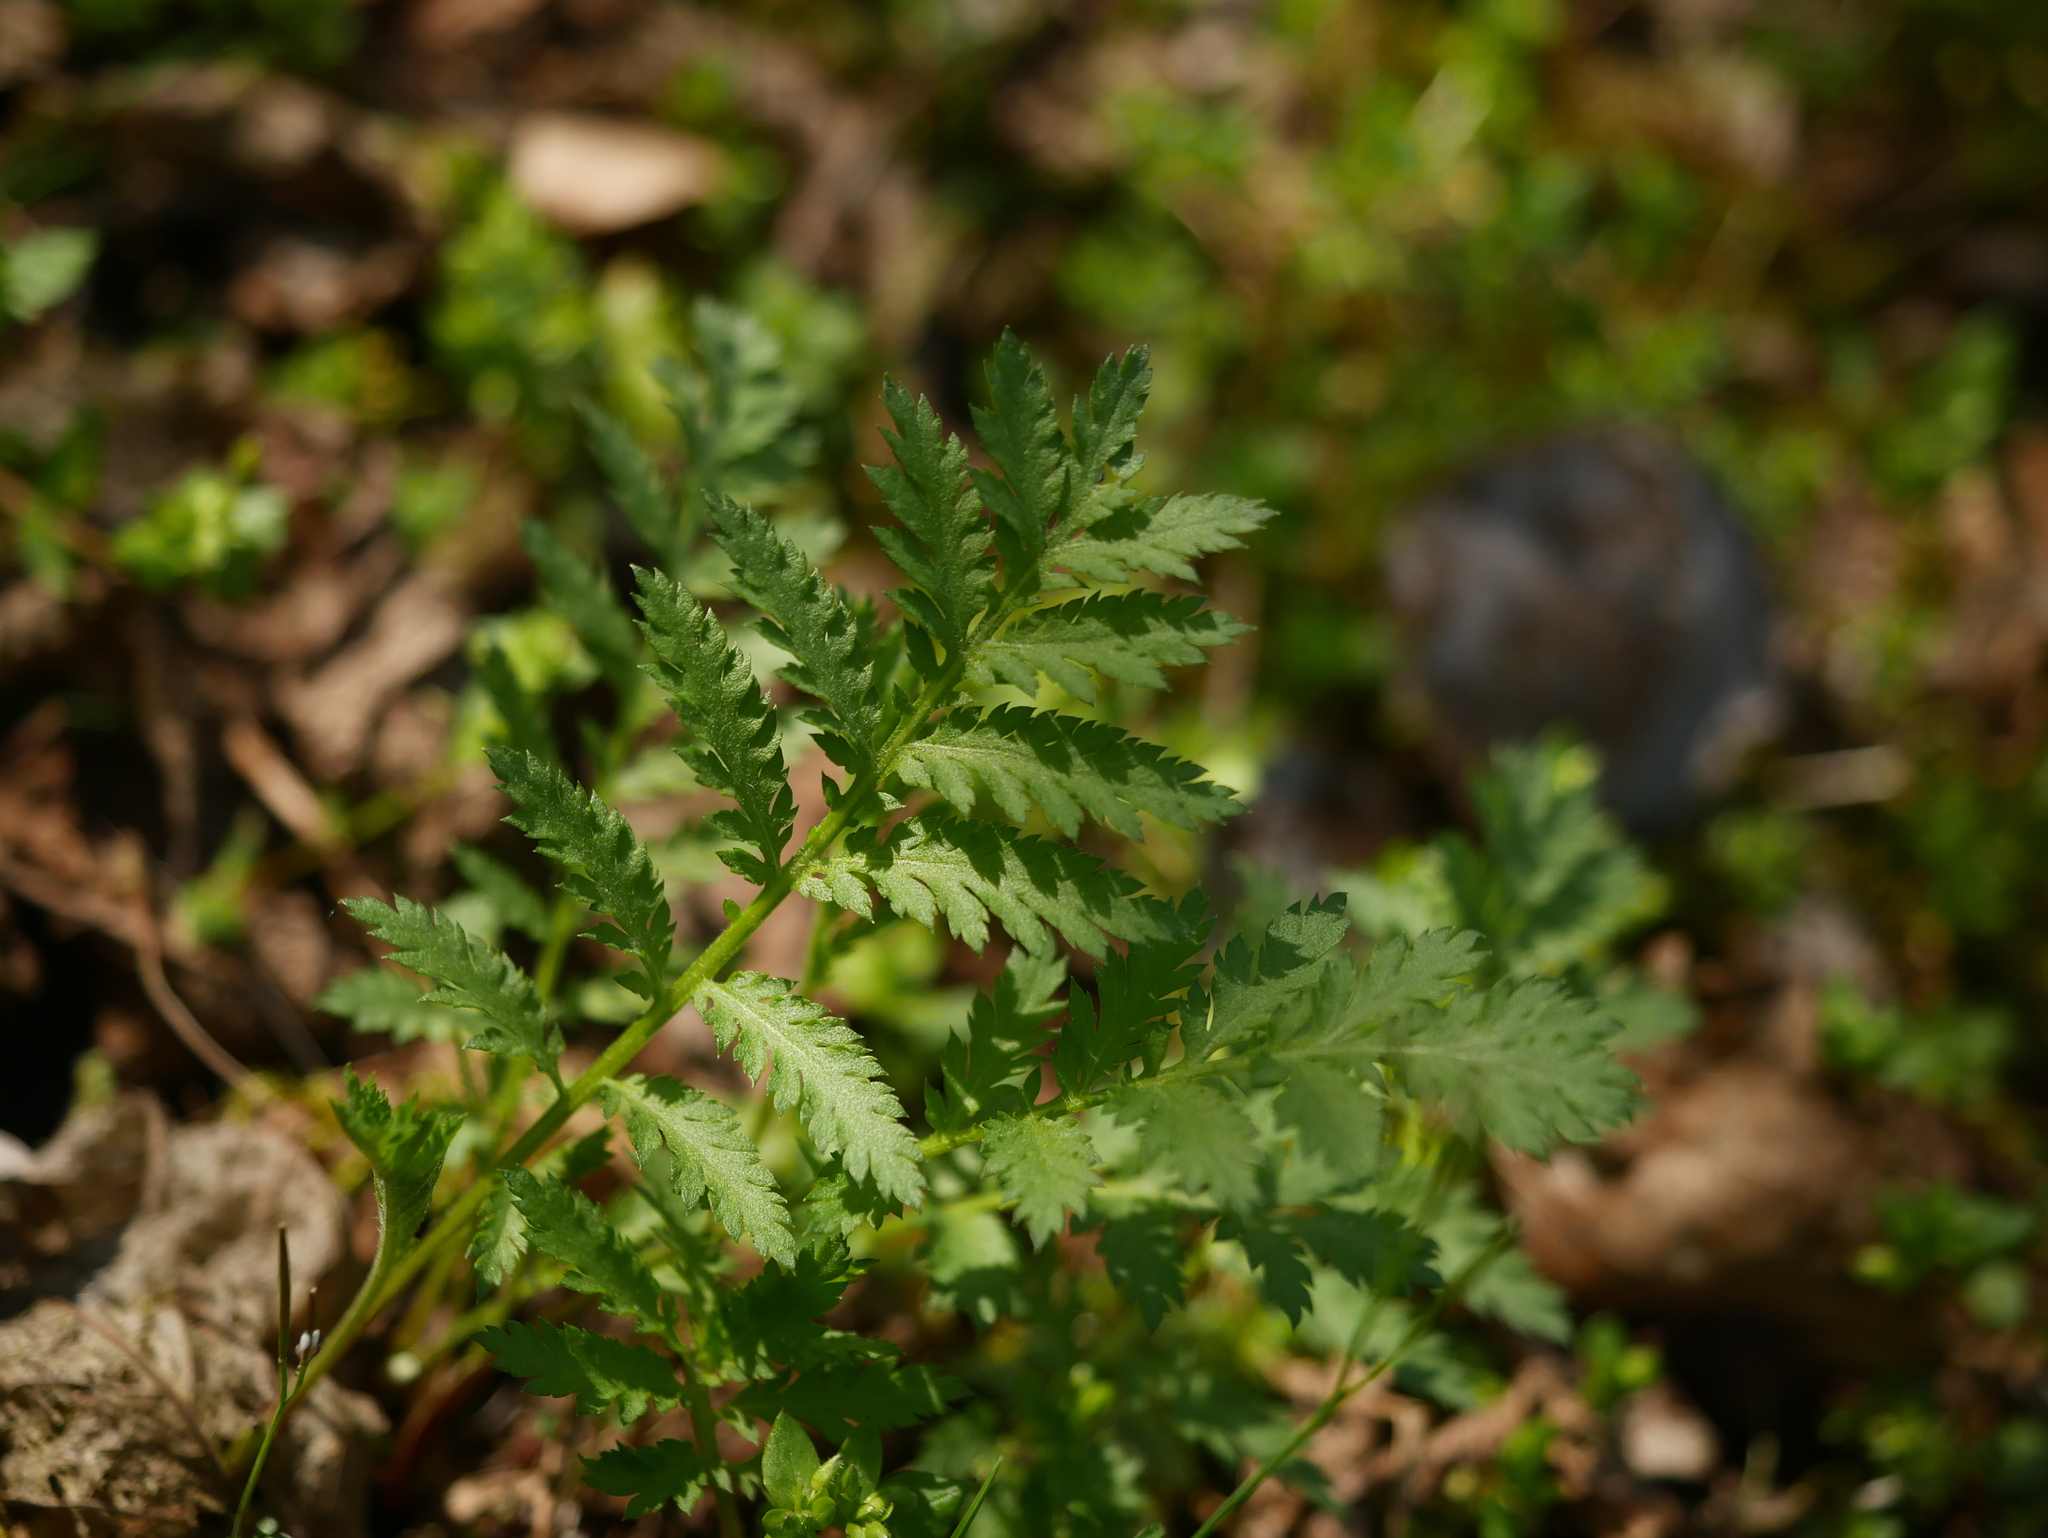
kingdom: Plantae
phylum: Tracheophyta
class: Magnoliopsida
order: Asterales
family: Asteraceae
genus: Tanacetum
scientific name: Tanacetum vulgare
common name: Common tansy
